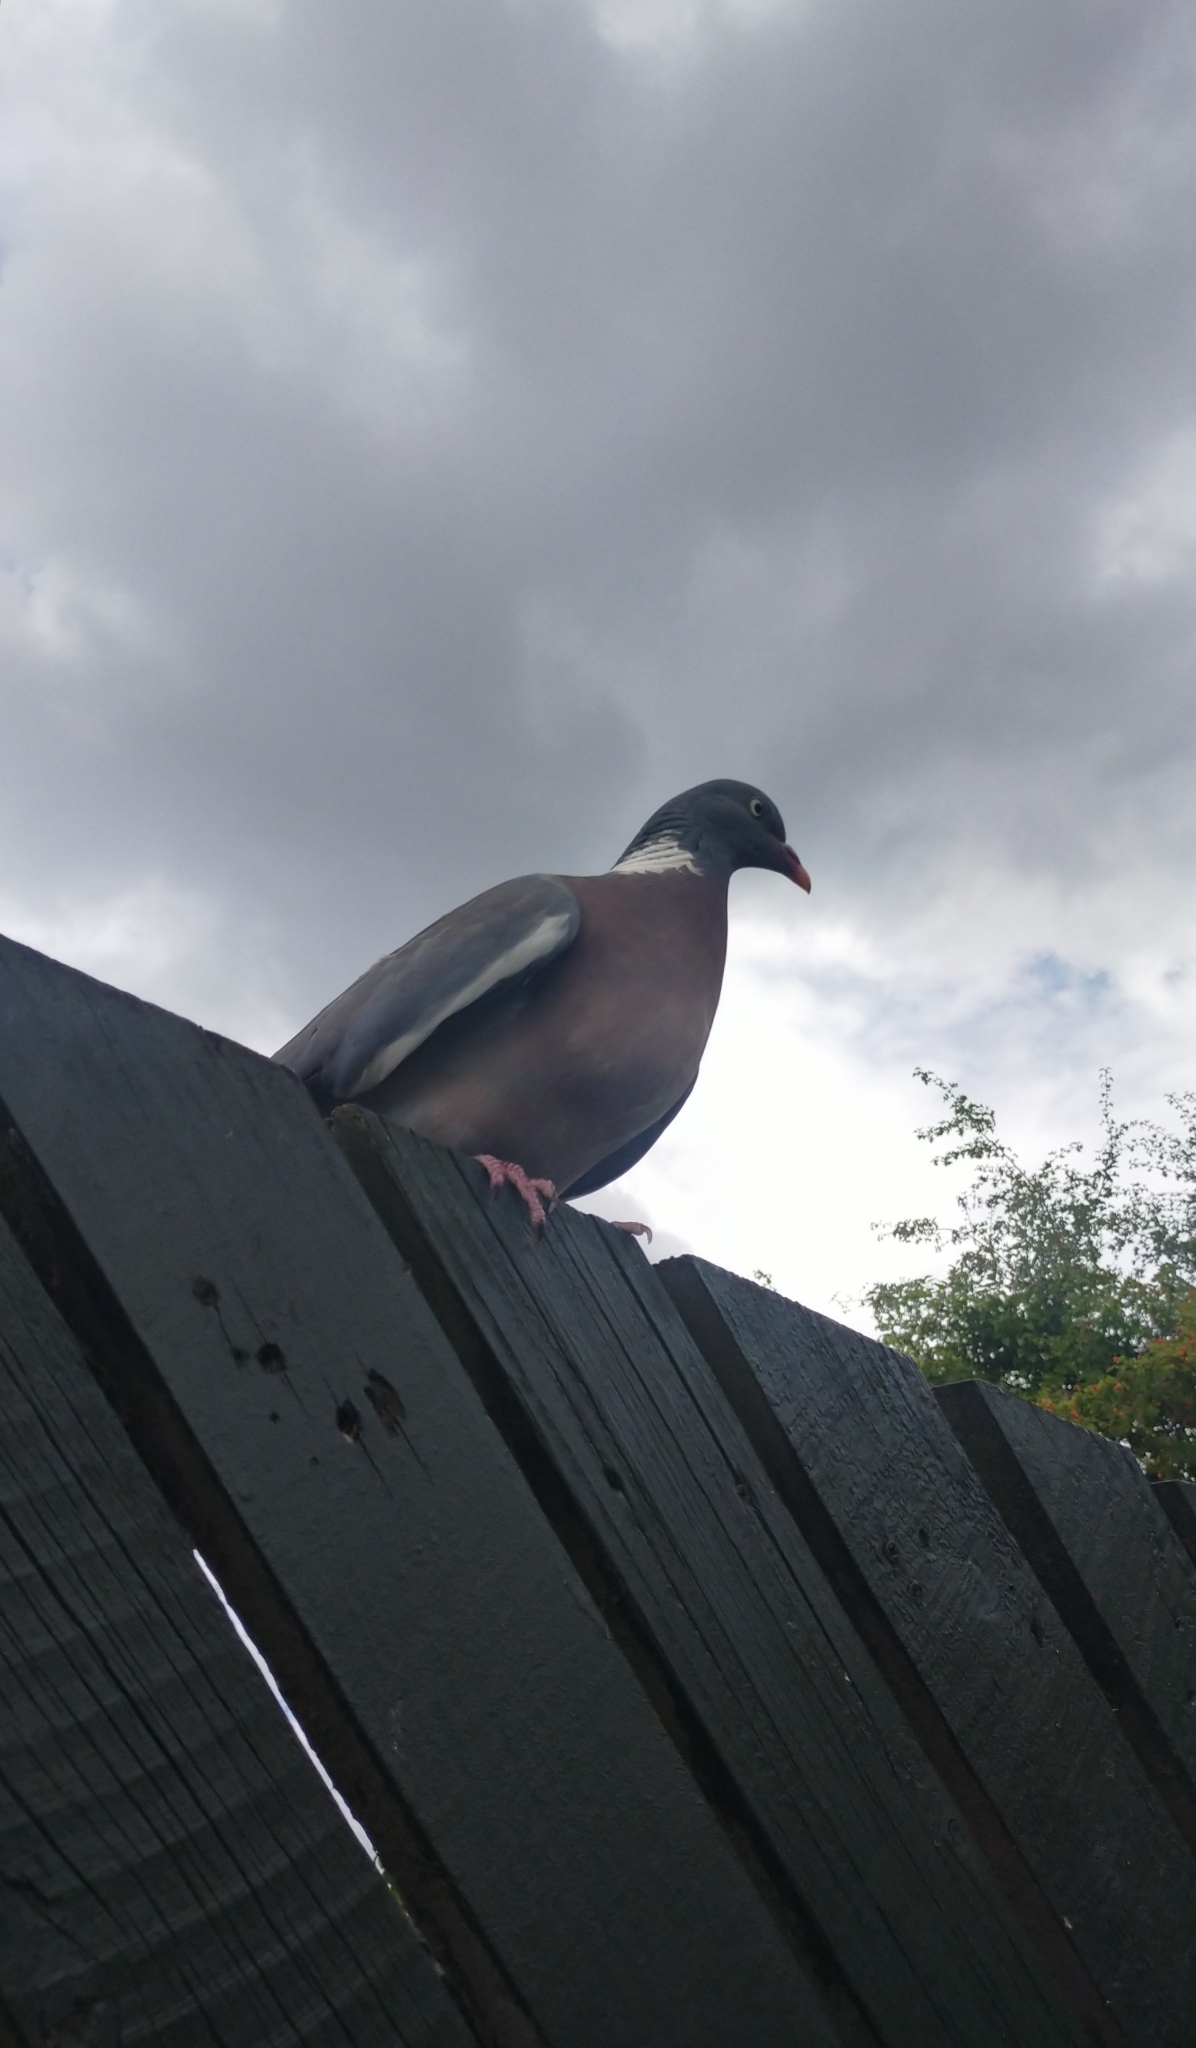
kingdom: Animalia
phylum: Chordata
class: Aves
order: Columbiformes
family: Columbidae
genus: Columba
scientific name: Columba palumbus
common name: Common wood pigeon
